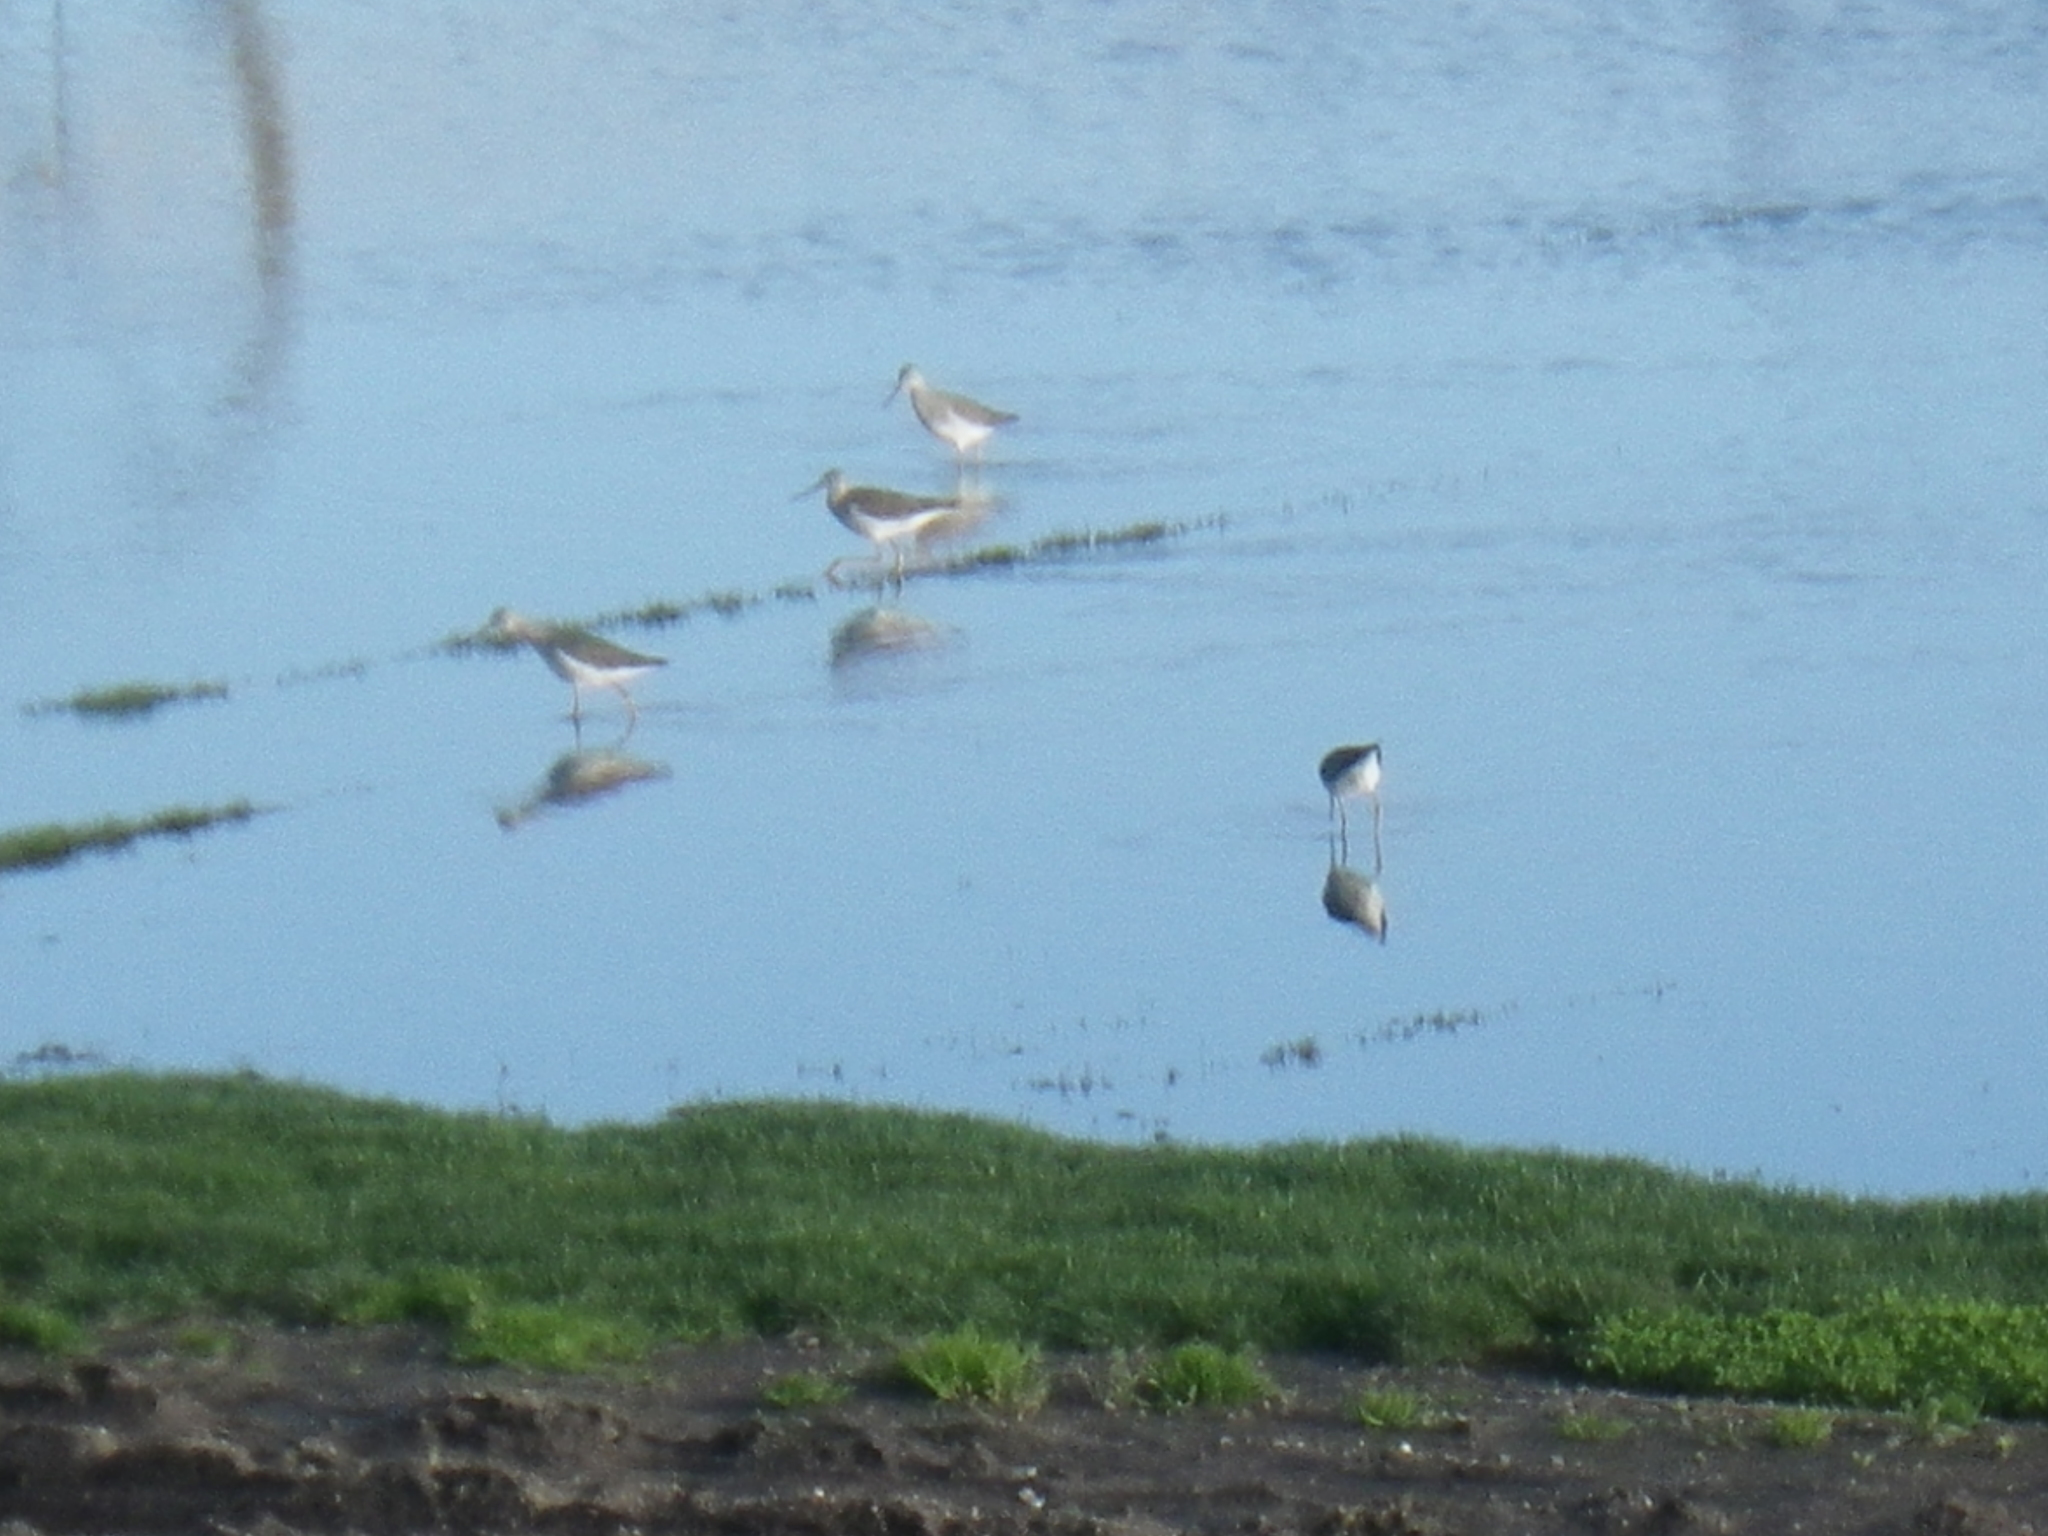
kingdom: Animalia
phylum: Chordata
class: Aves
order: Charadriiformes
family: Scolopacidae
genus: Tringa
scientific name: Tringa melanoleuca
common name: Greater yellowlegs
